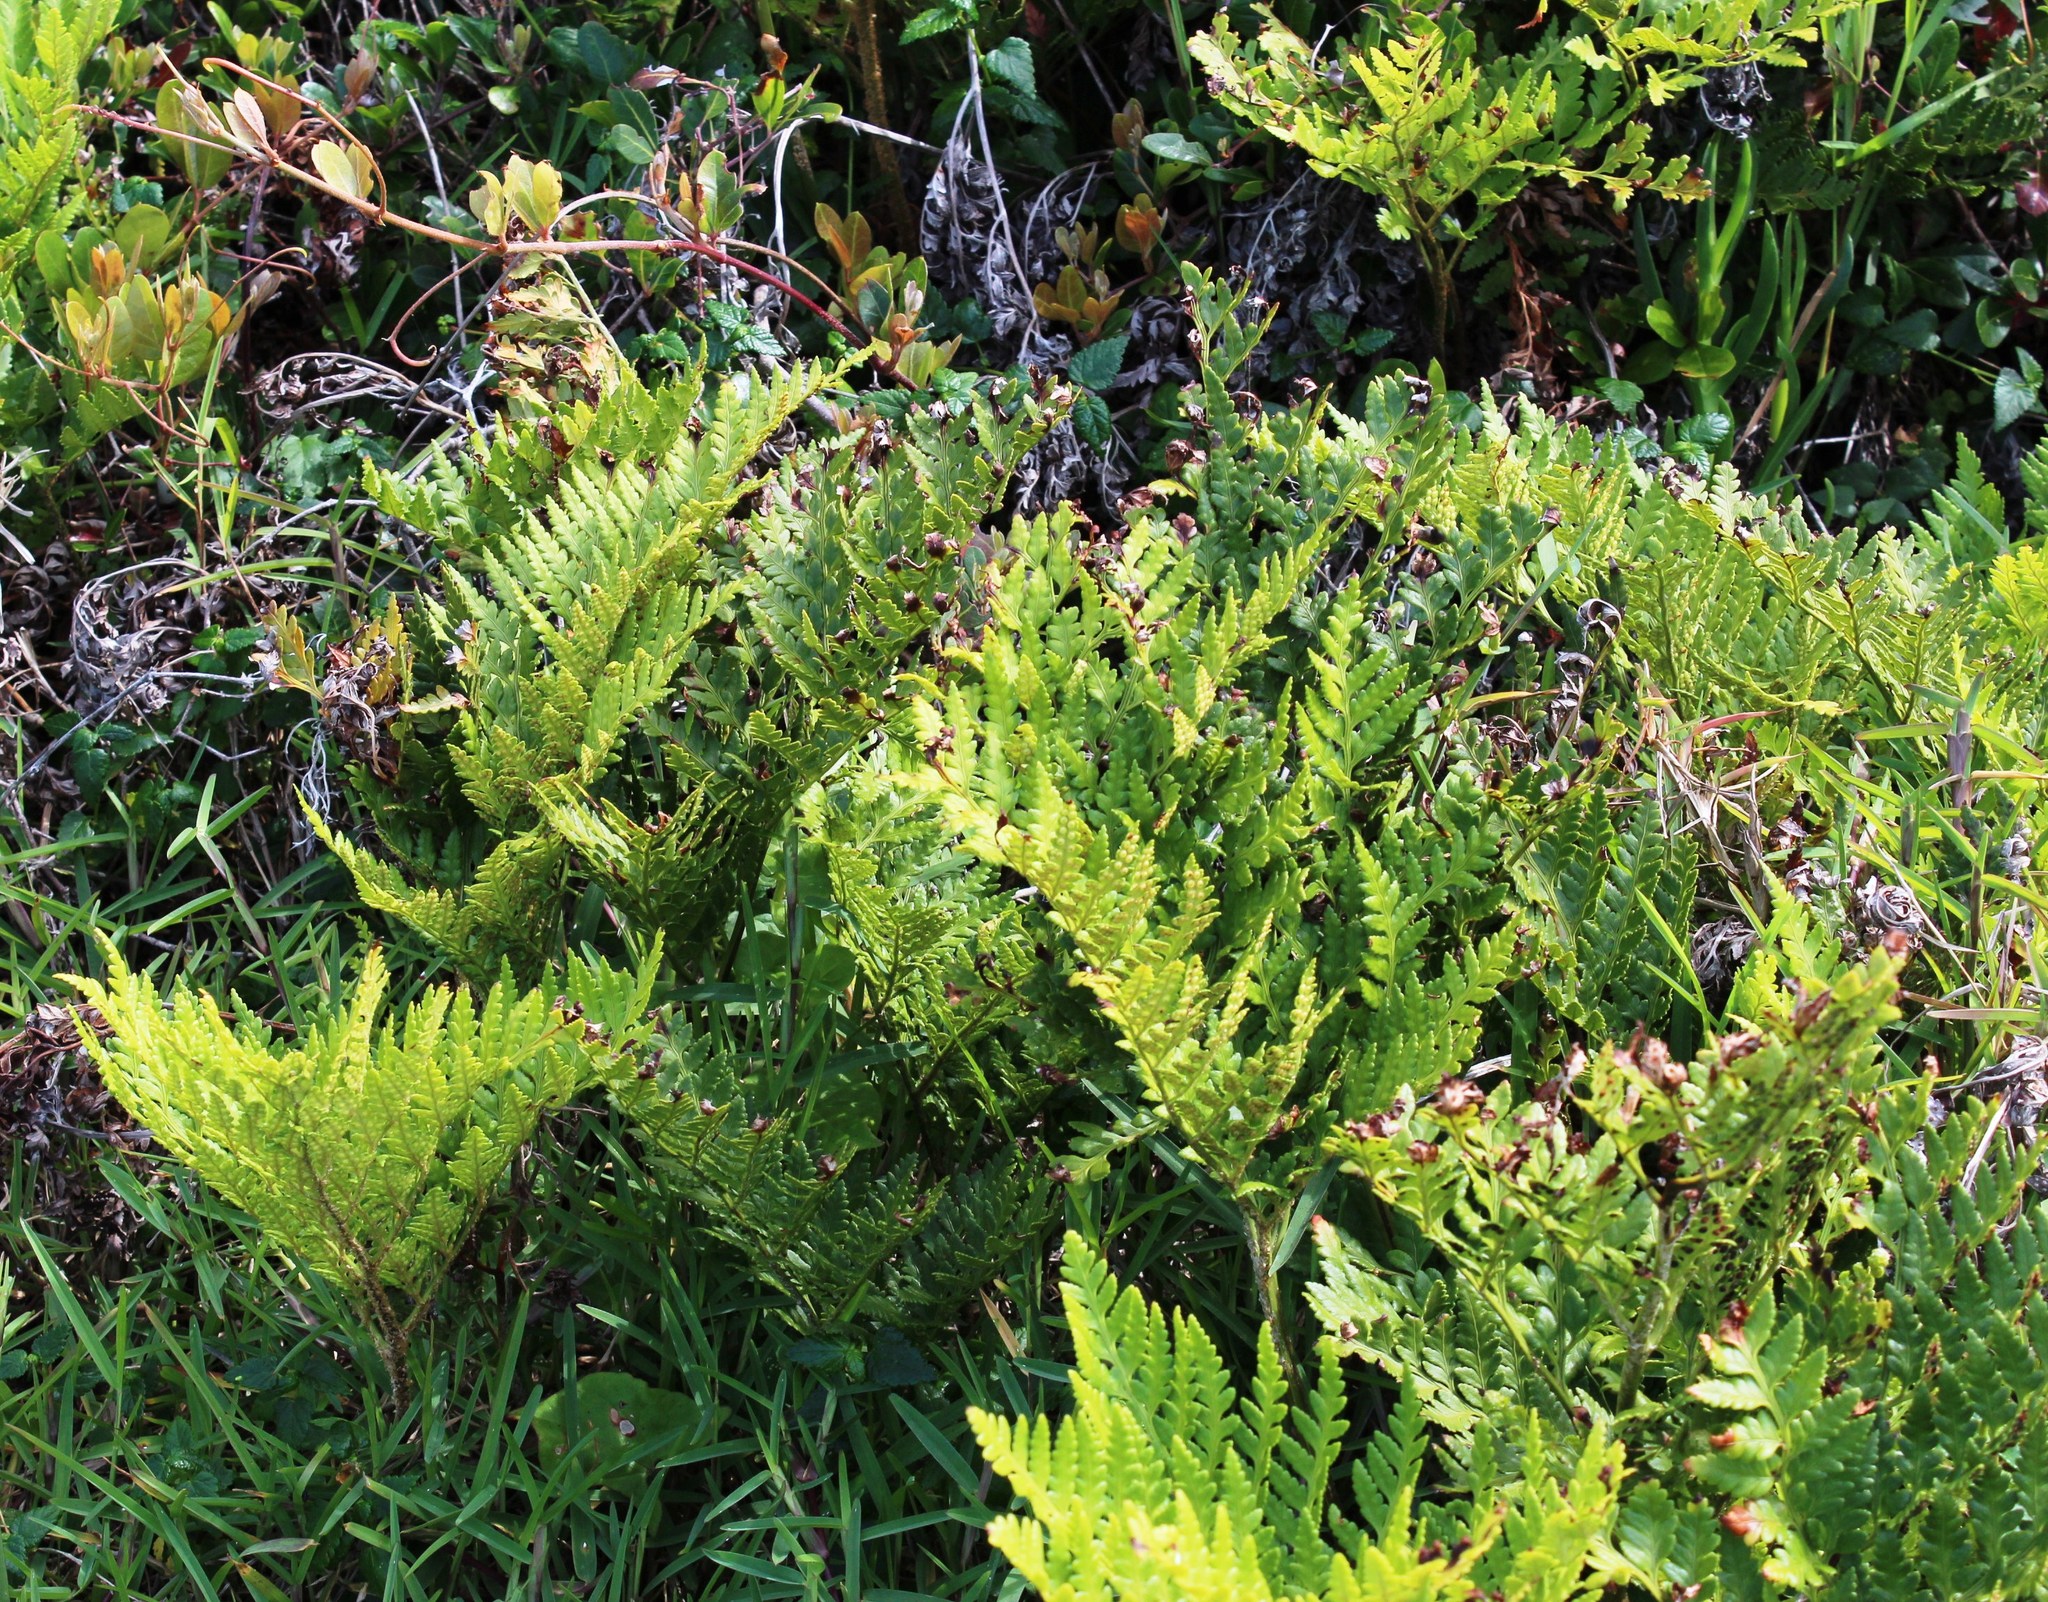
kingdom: Plantae
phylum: Tracheophyta
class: Polypodiopsida
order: Polypodiales
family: Dryopteridaceae
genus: Rumohra
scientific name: Rumohra adiantiformis
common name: Leather fern
